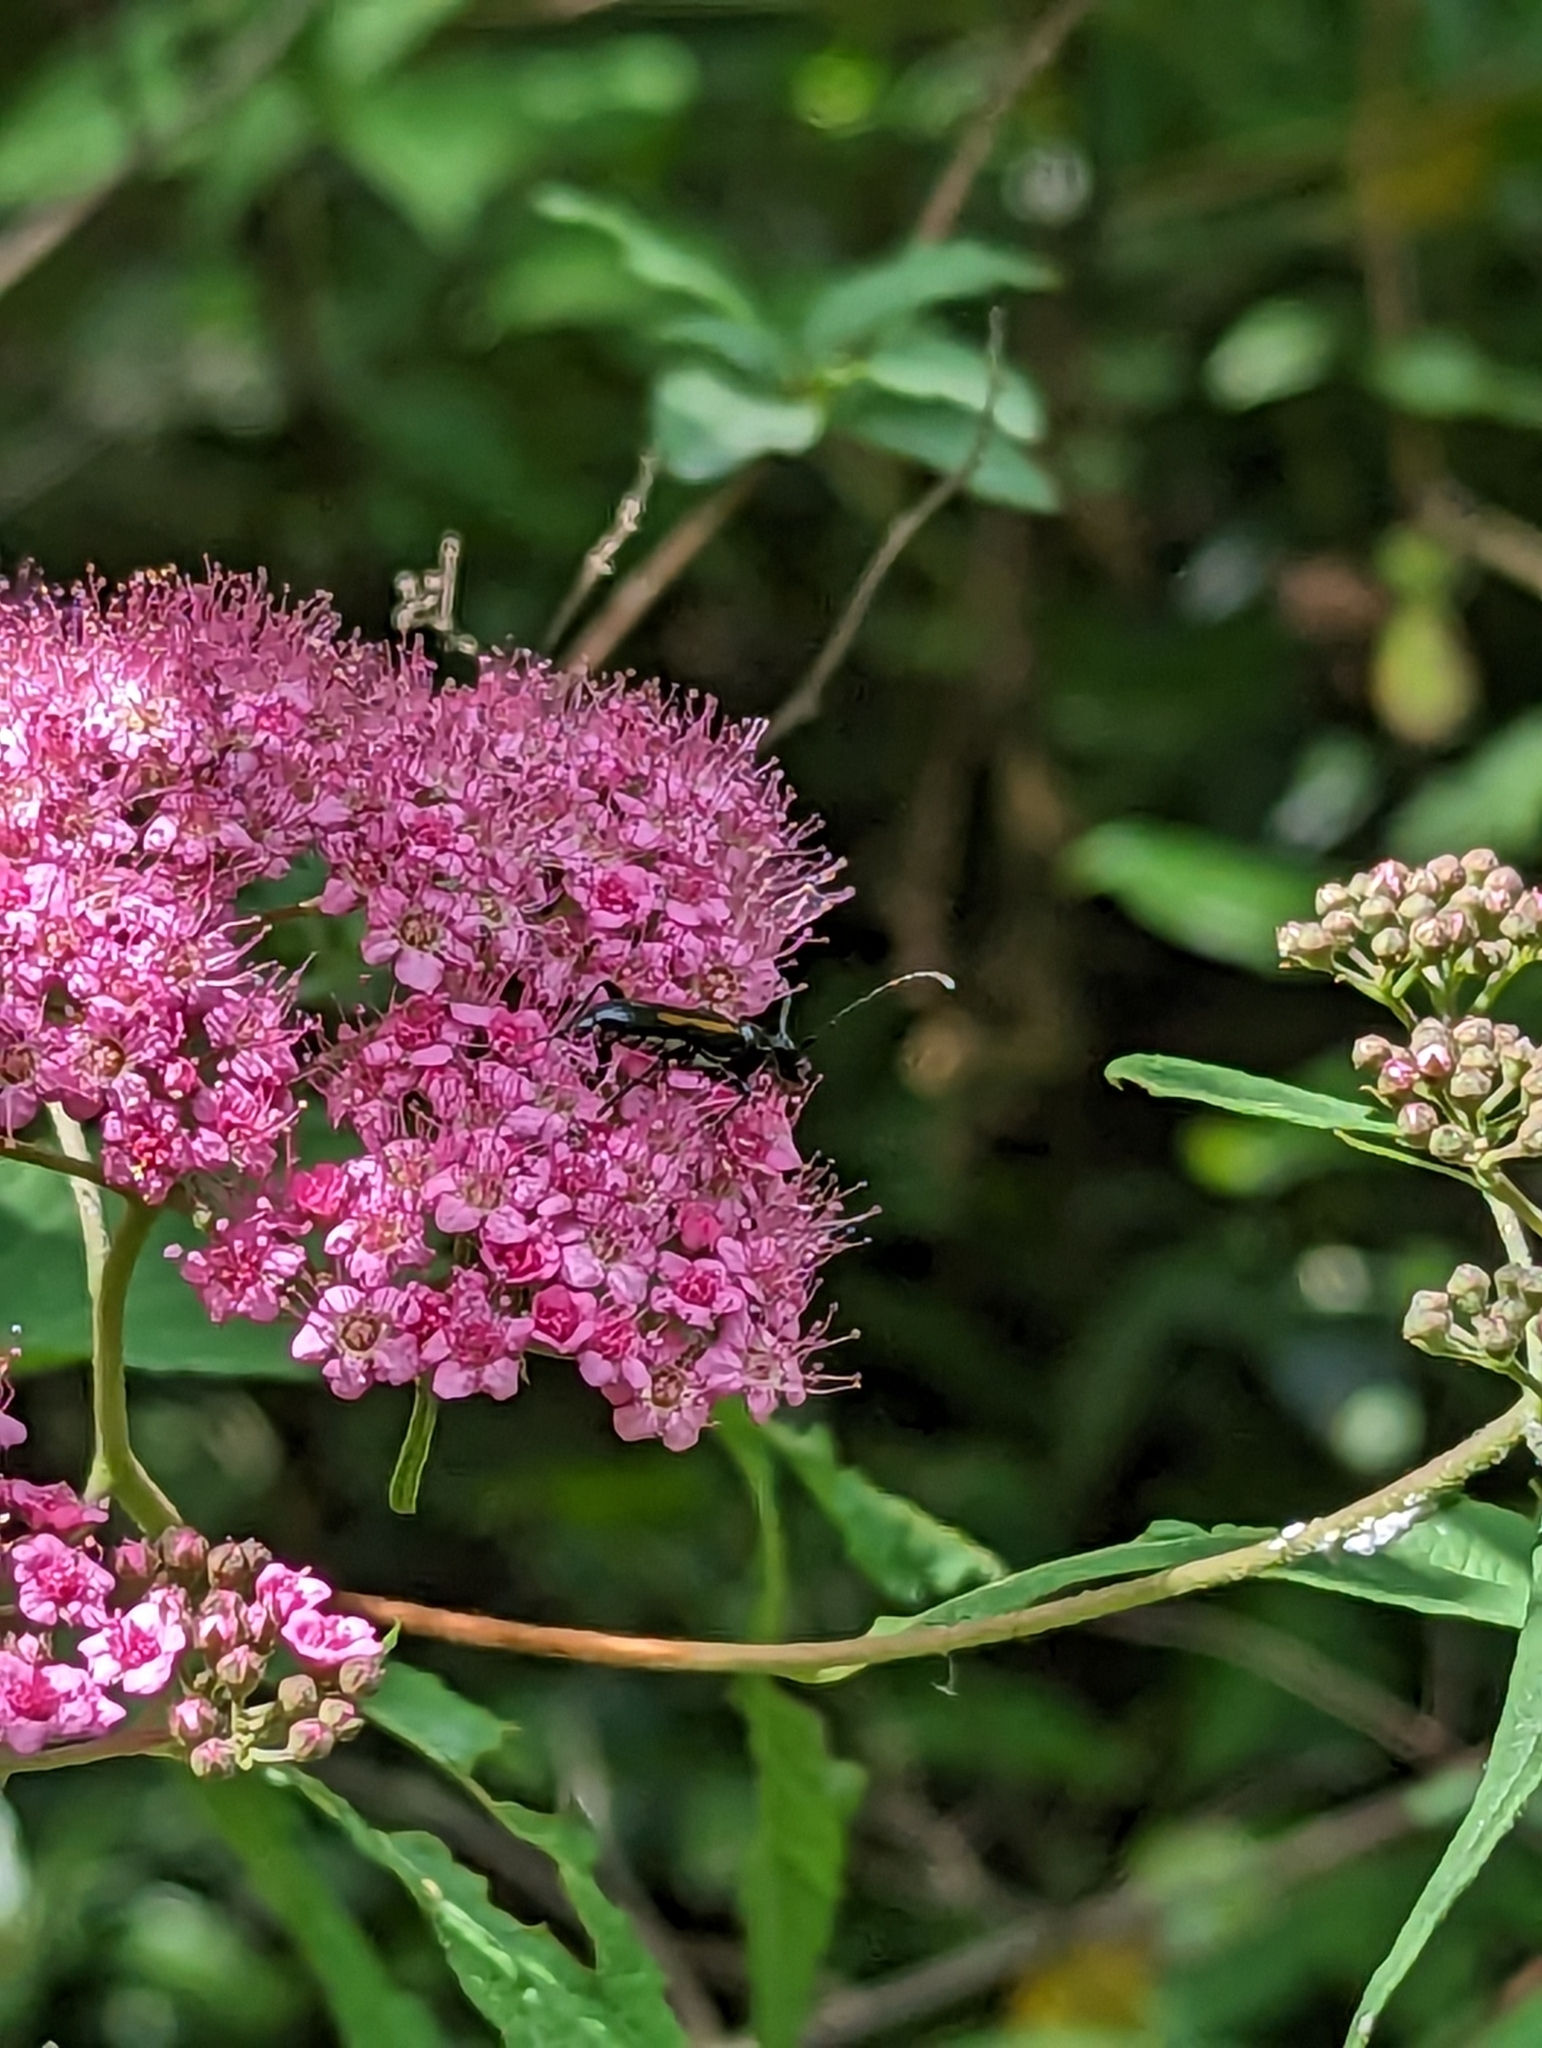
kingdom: Plantae
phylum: Tracheophyta
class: Magnoliopsida
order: Rosales
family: Rosaceae
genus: Spiraea
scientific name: Spiraea japonica
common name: Japanese spiraea
